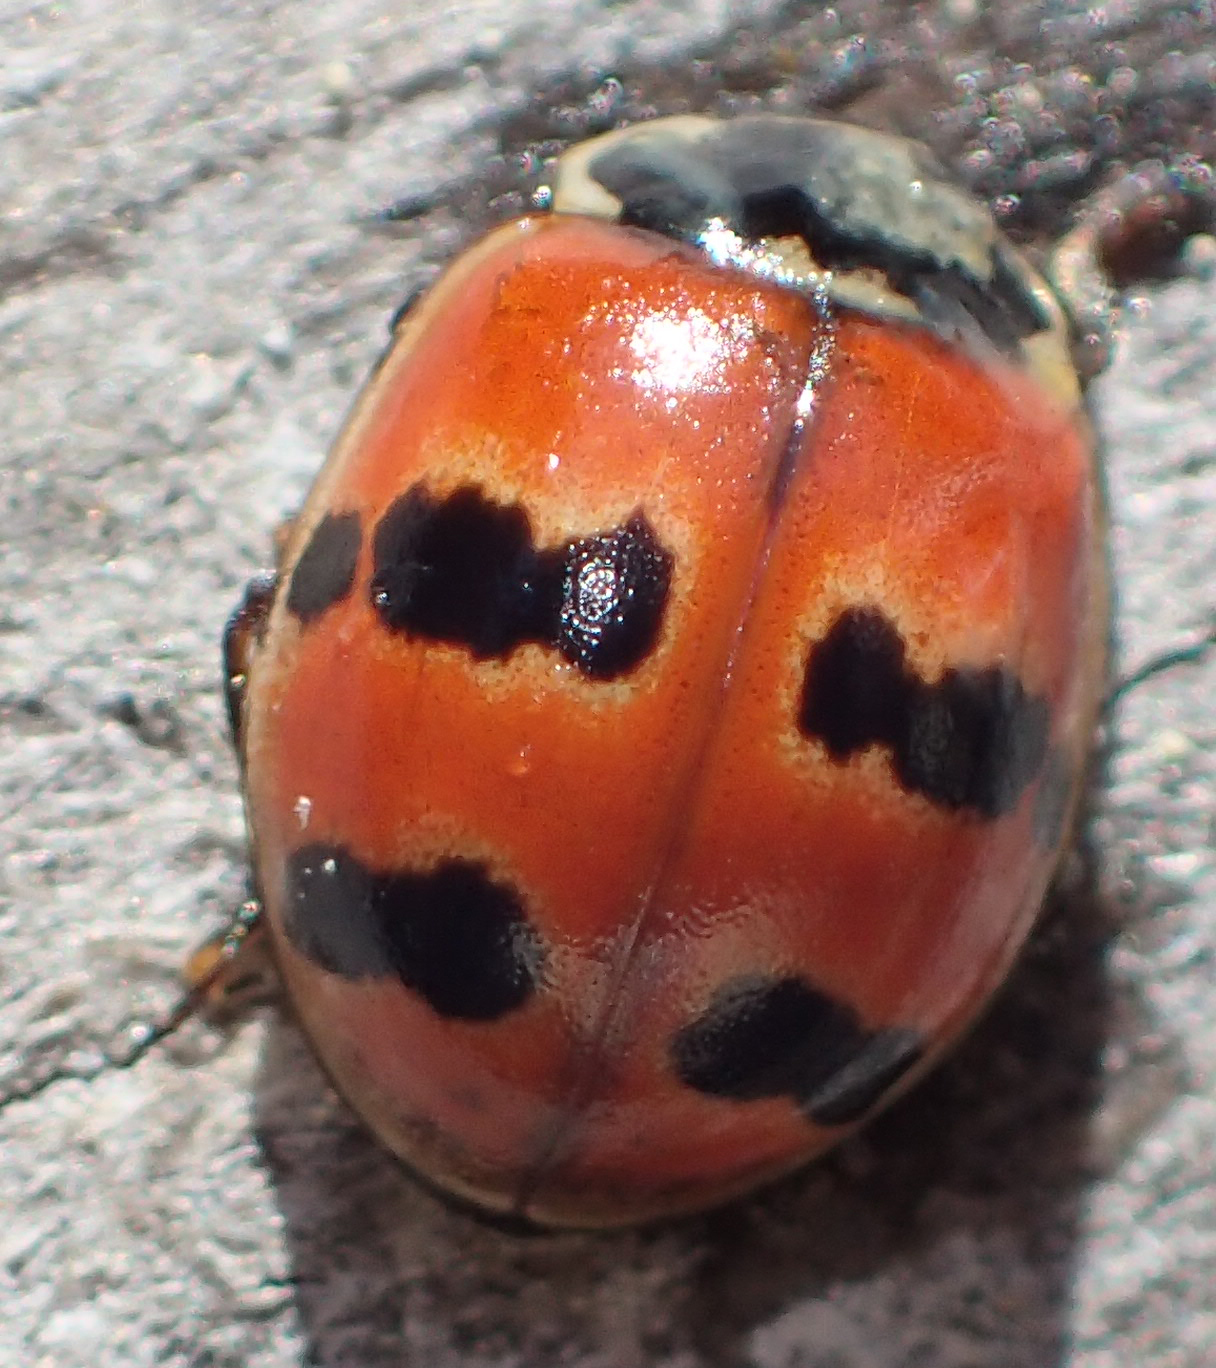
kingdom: Animalia
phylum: Arthropoda
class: Insecta
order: Coleoptera
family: Coccinellidae
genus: Adalia
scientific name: Adalia bipunctata
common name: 2-spot ladybird
